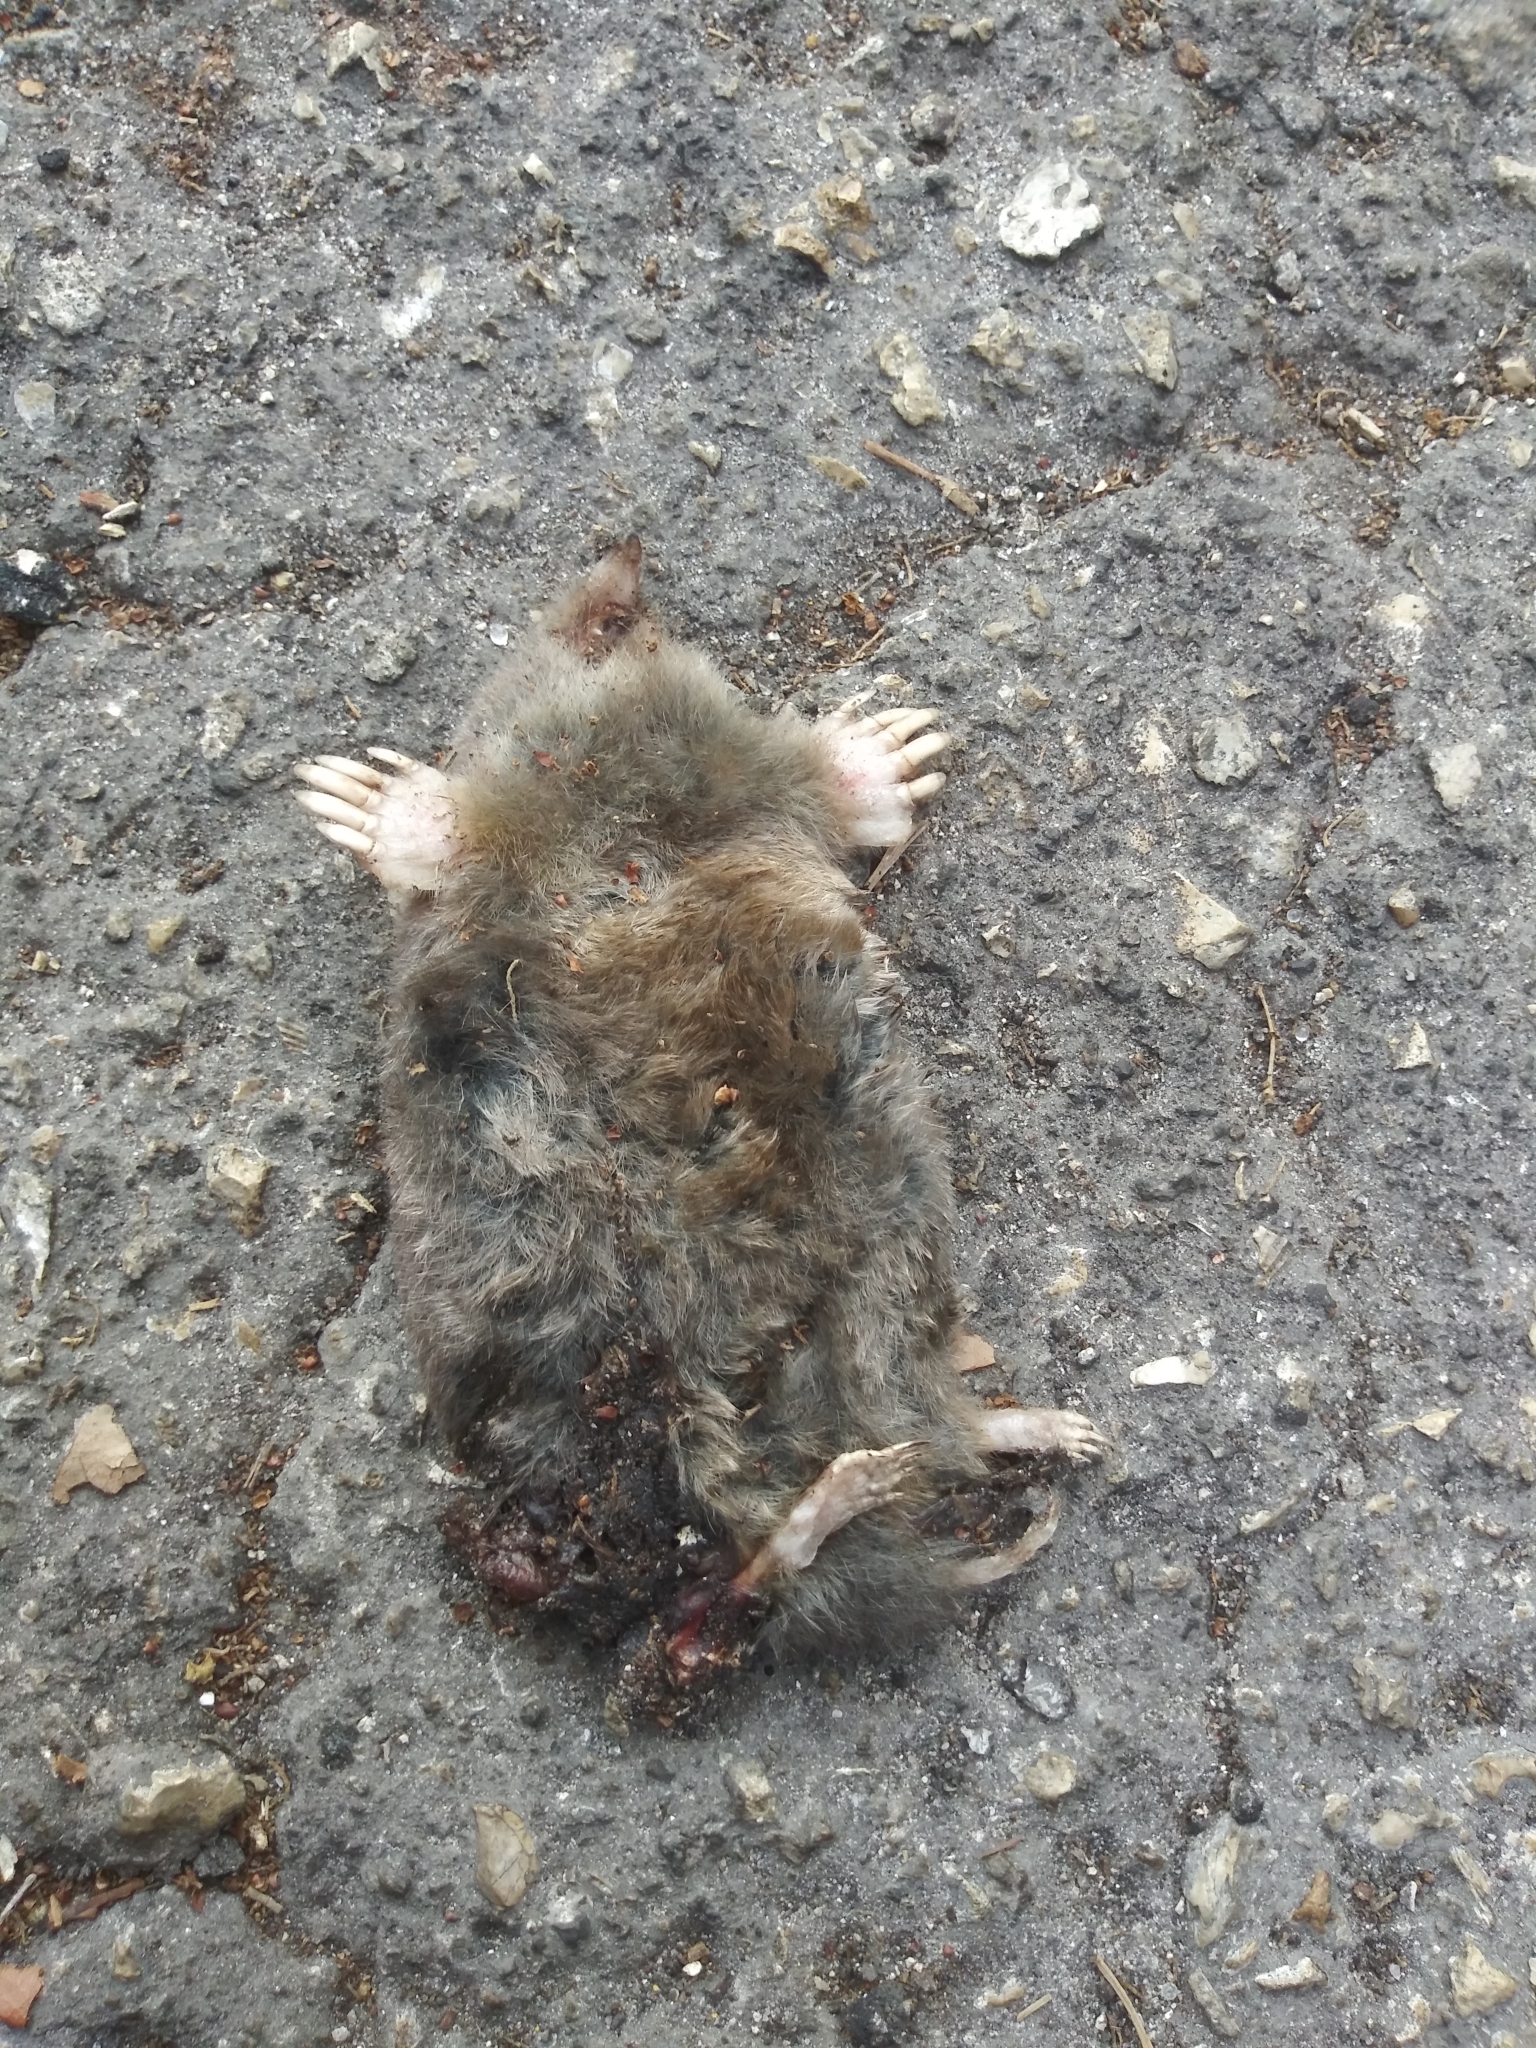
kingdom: Animalia
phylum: Chordata
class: Mammalia
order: Soricomorpha
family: Talpidae
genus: Scalopus
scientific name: Scalopus aquaticus
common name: Eastern mole
